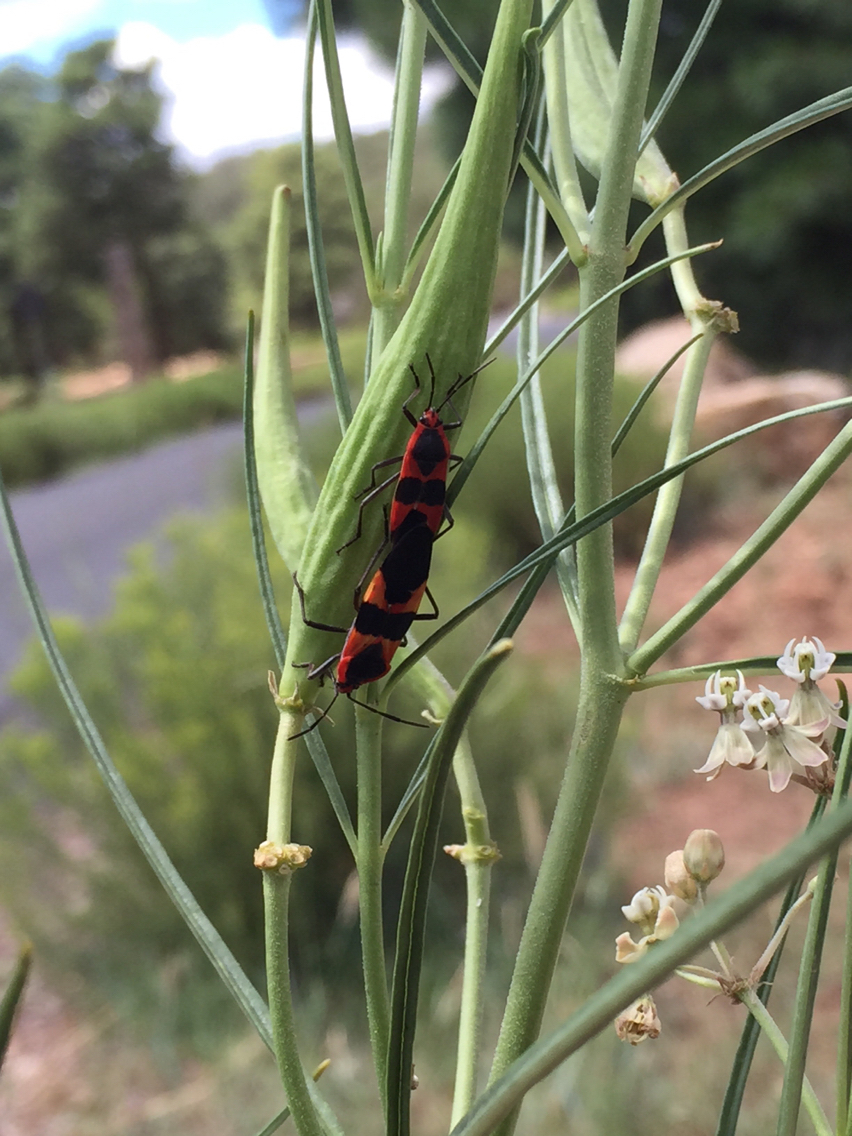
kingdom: Animalia
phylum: Arthropoda
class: Insecta
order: Hemiptera
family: Lygaeidae
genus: Oncopeltus
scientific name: Oncopeltus fasciatus
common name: Large milkweed bug
